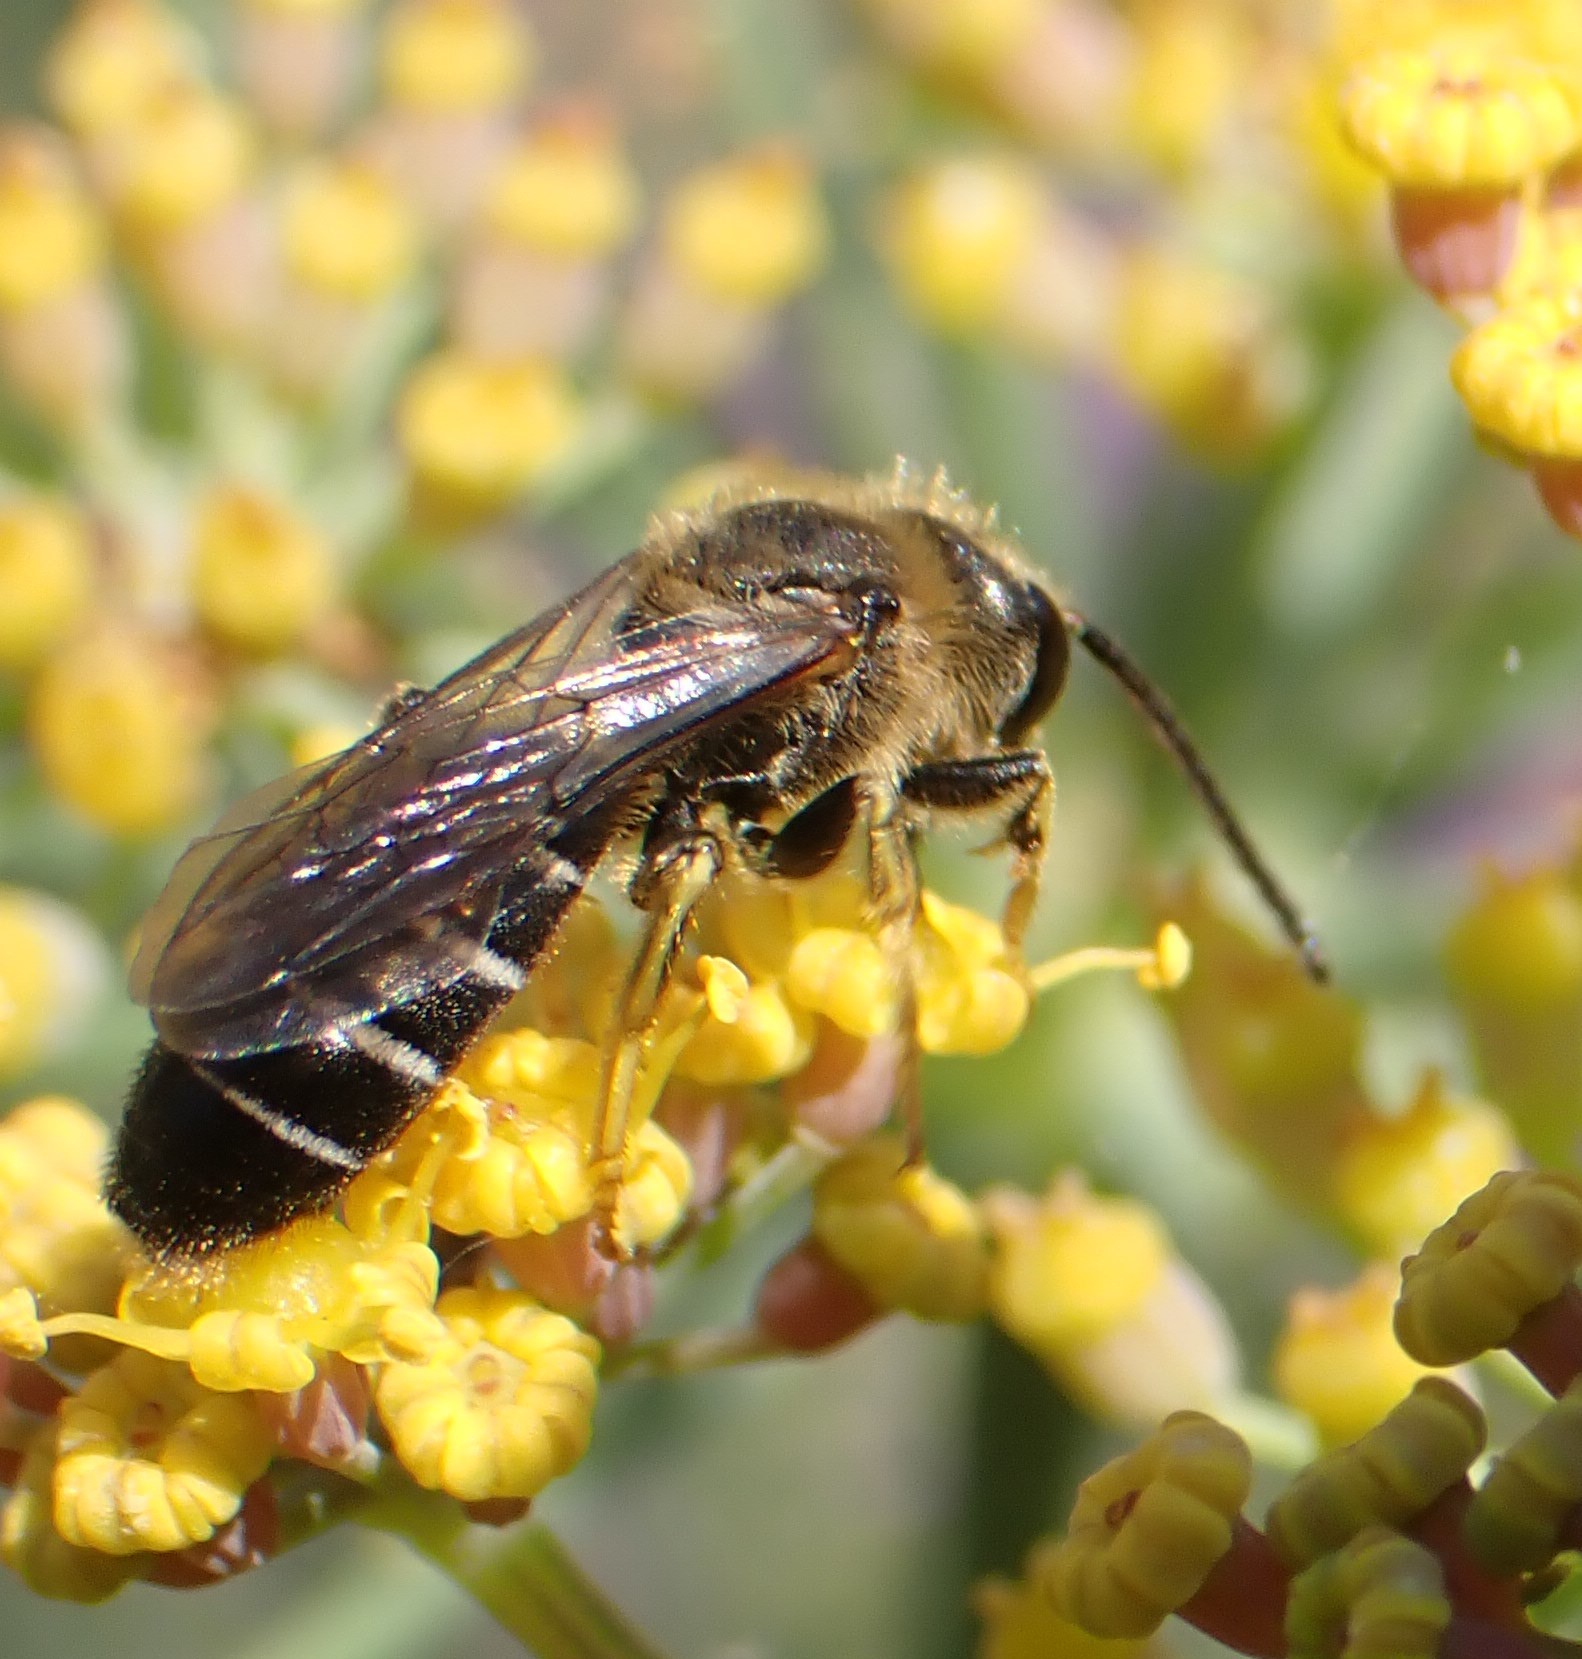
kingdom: Animalia
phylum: Arthropoda
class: Insecta
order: Hymenoptera
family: Halictidae
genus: Halictus
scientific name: Halictus rubicundus
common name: Orange-legged furrow bee
